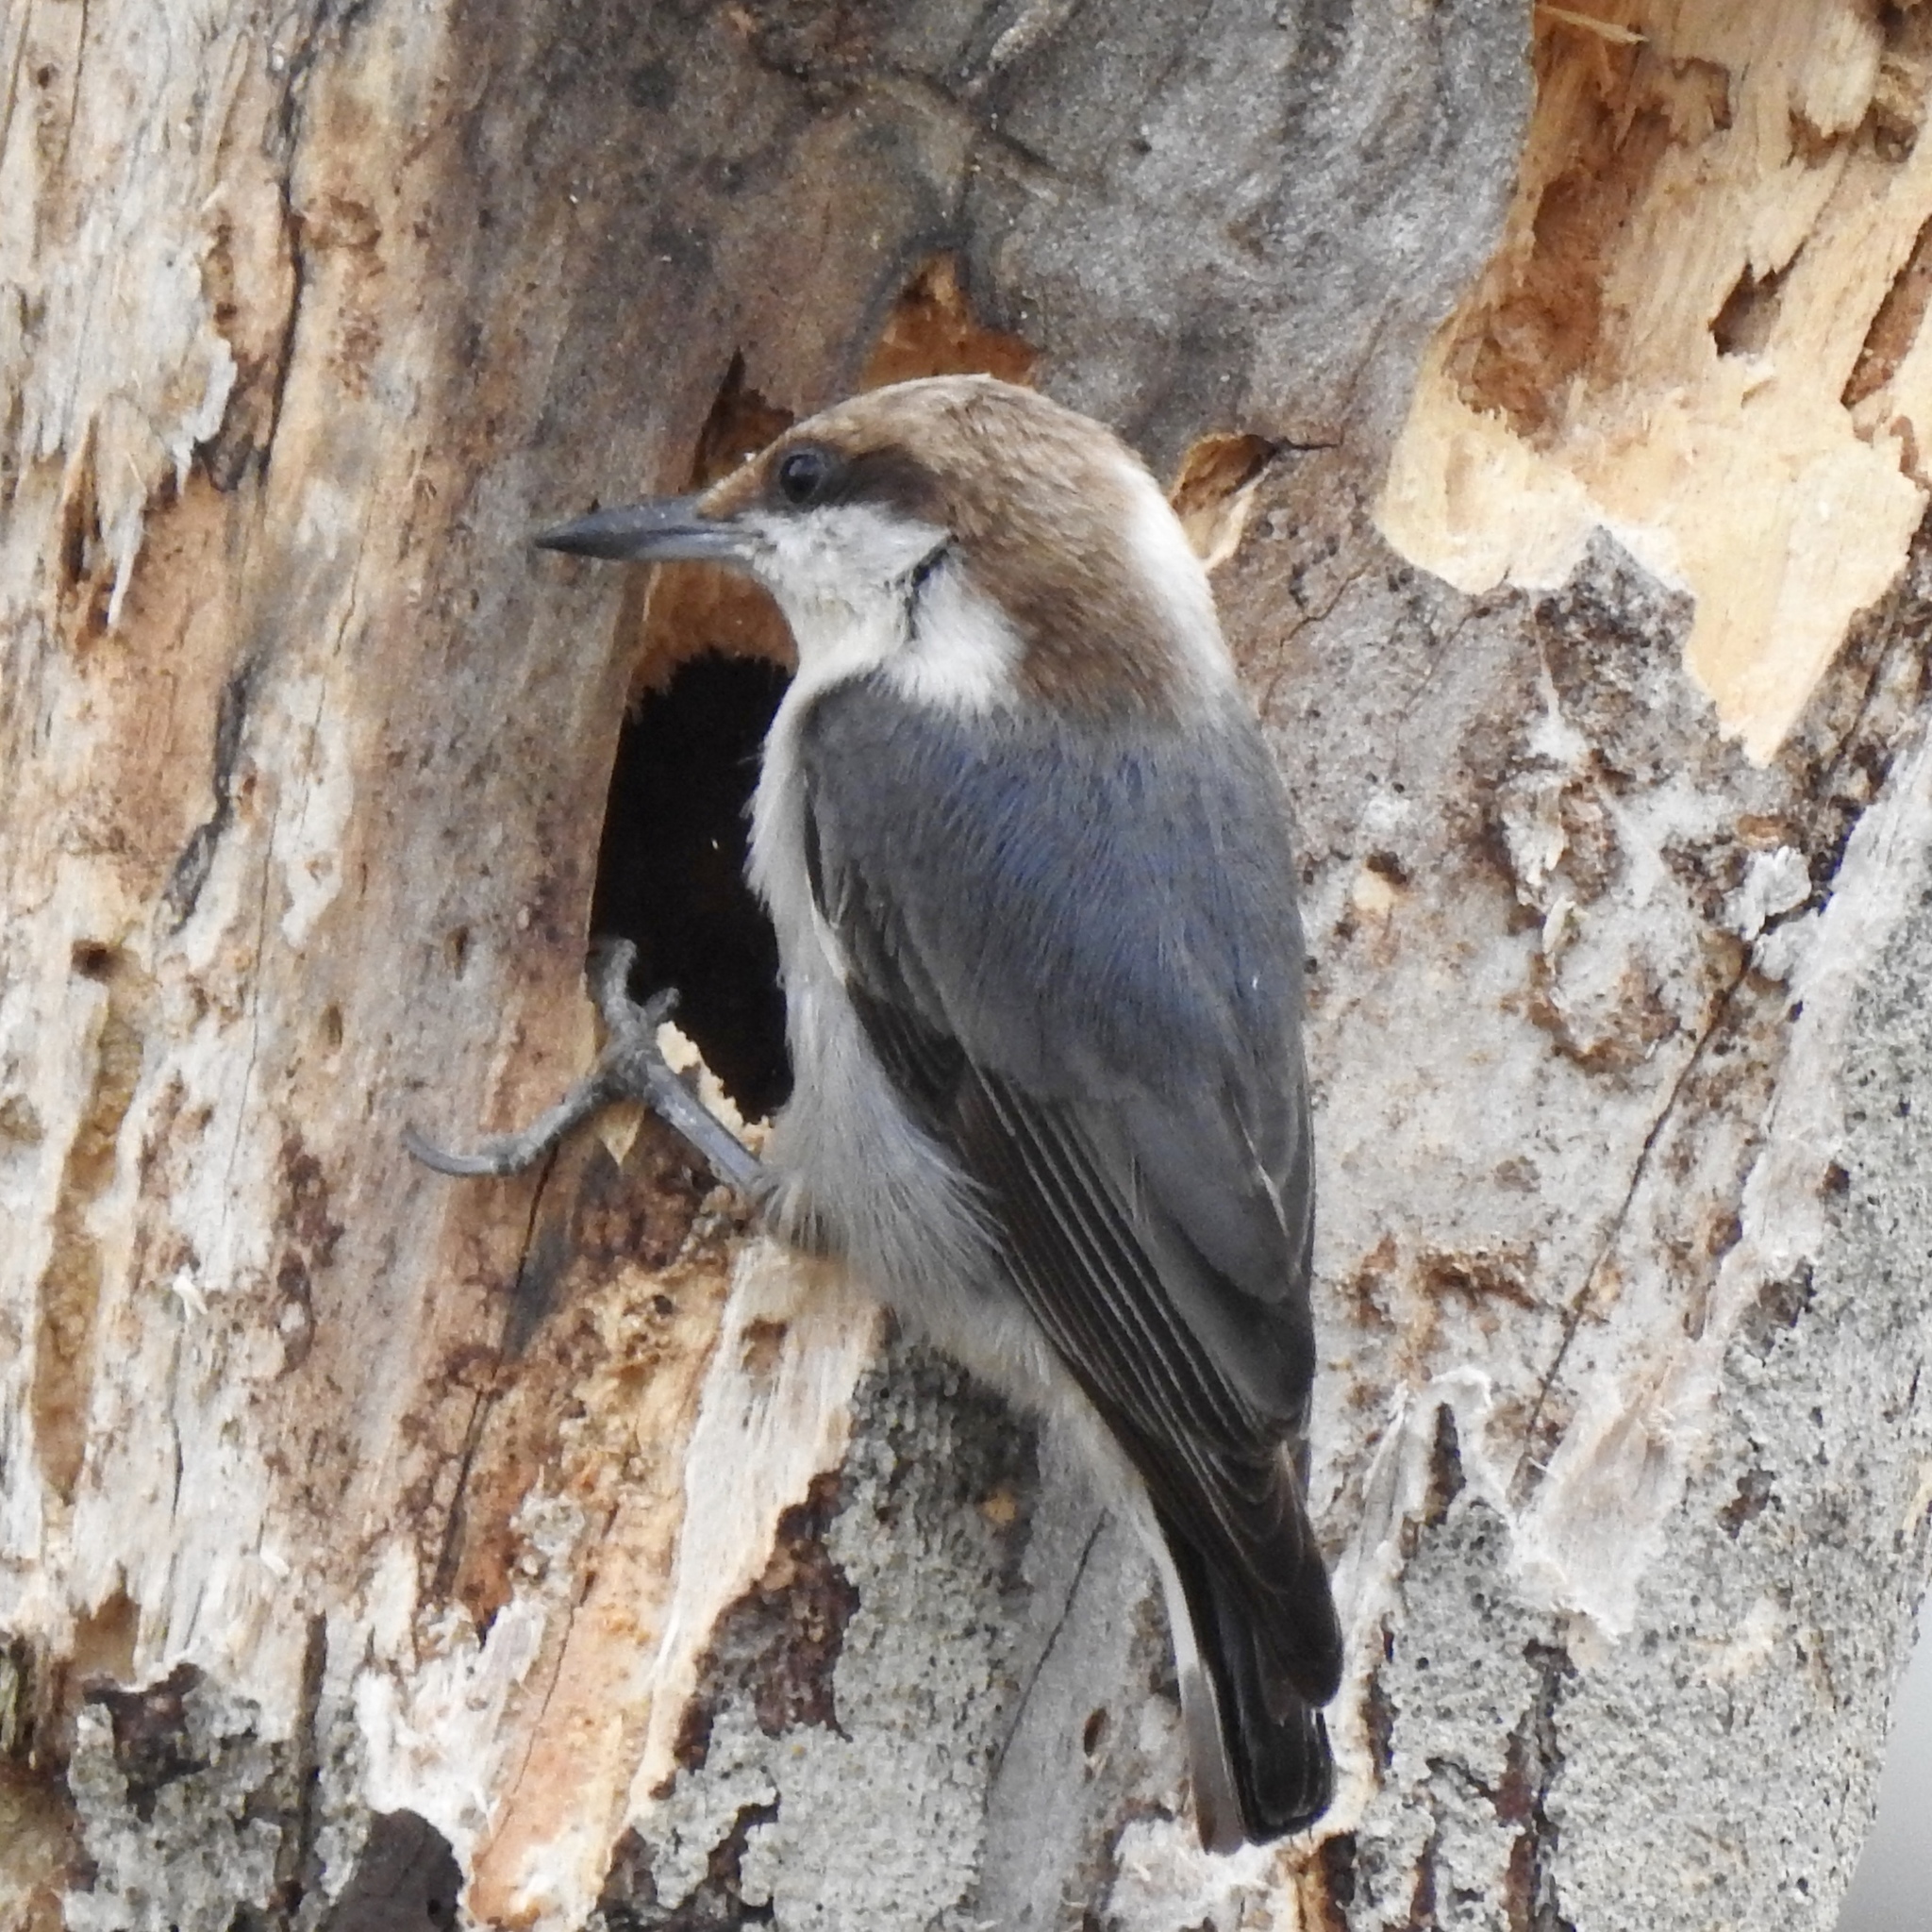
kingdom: Animalia
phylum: Chordata
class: Aves
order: Passeriformes
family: Sittidae
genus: Sitta
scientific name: Sitta pusilla
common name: Brown-headed nuthatch
